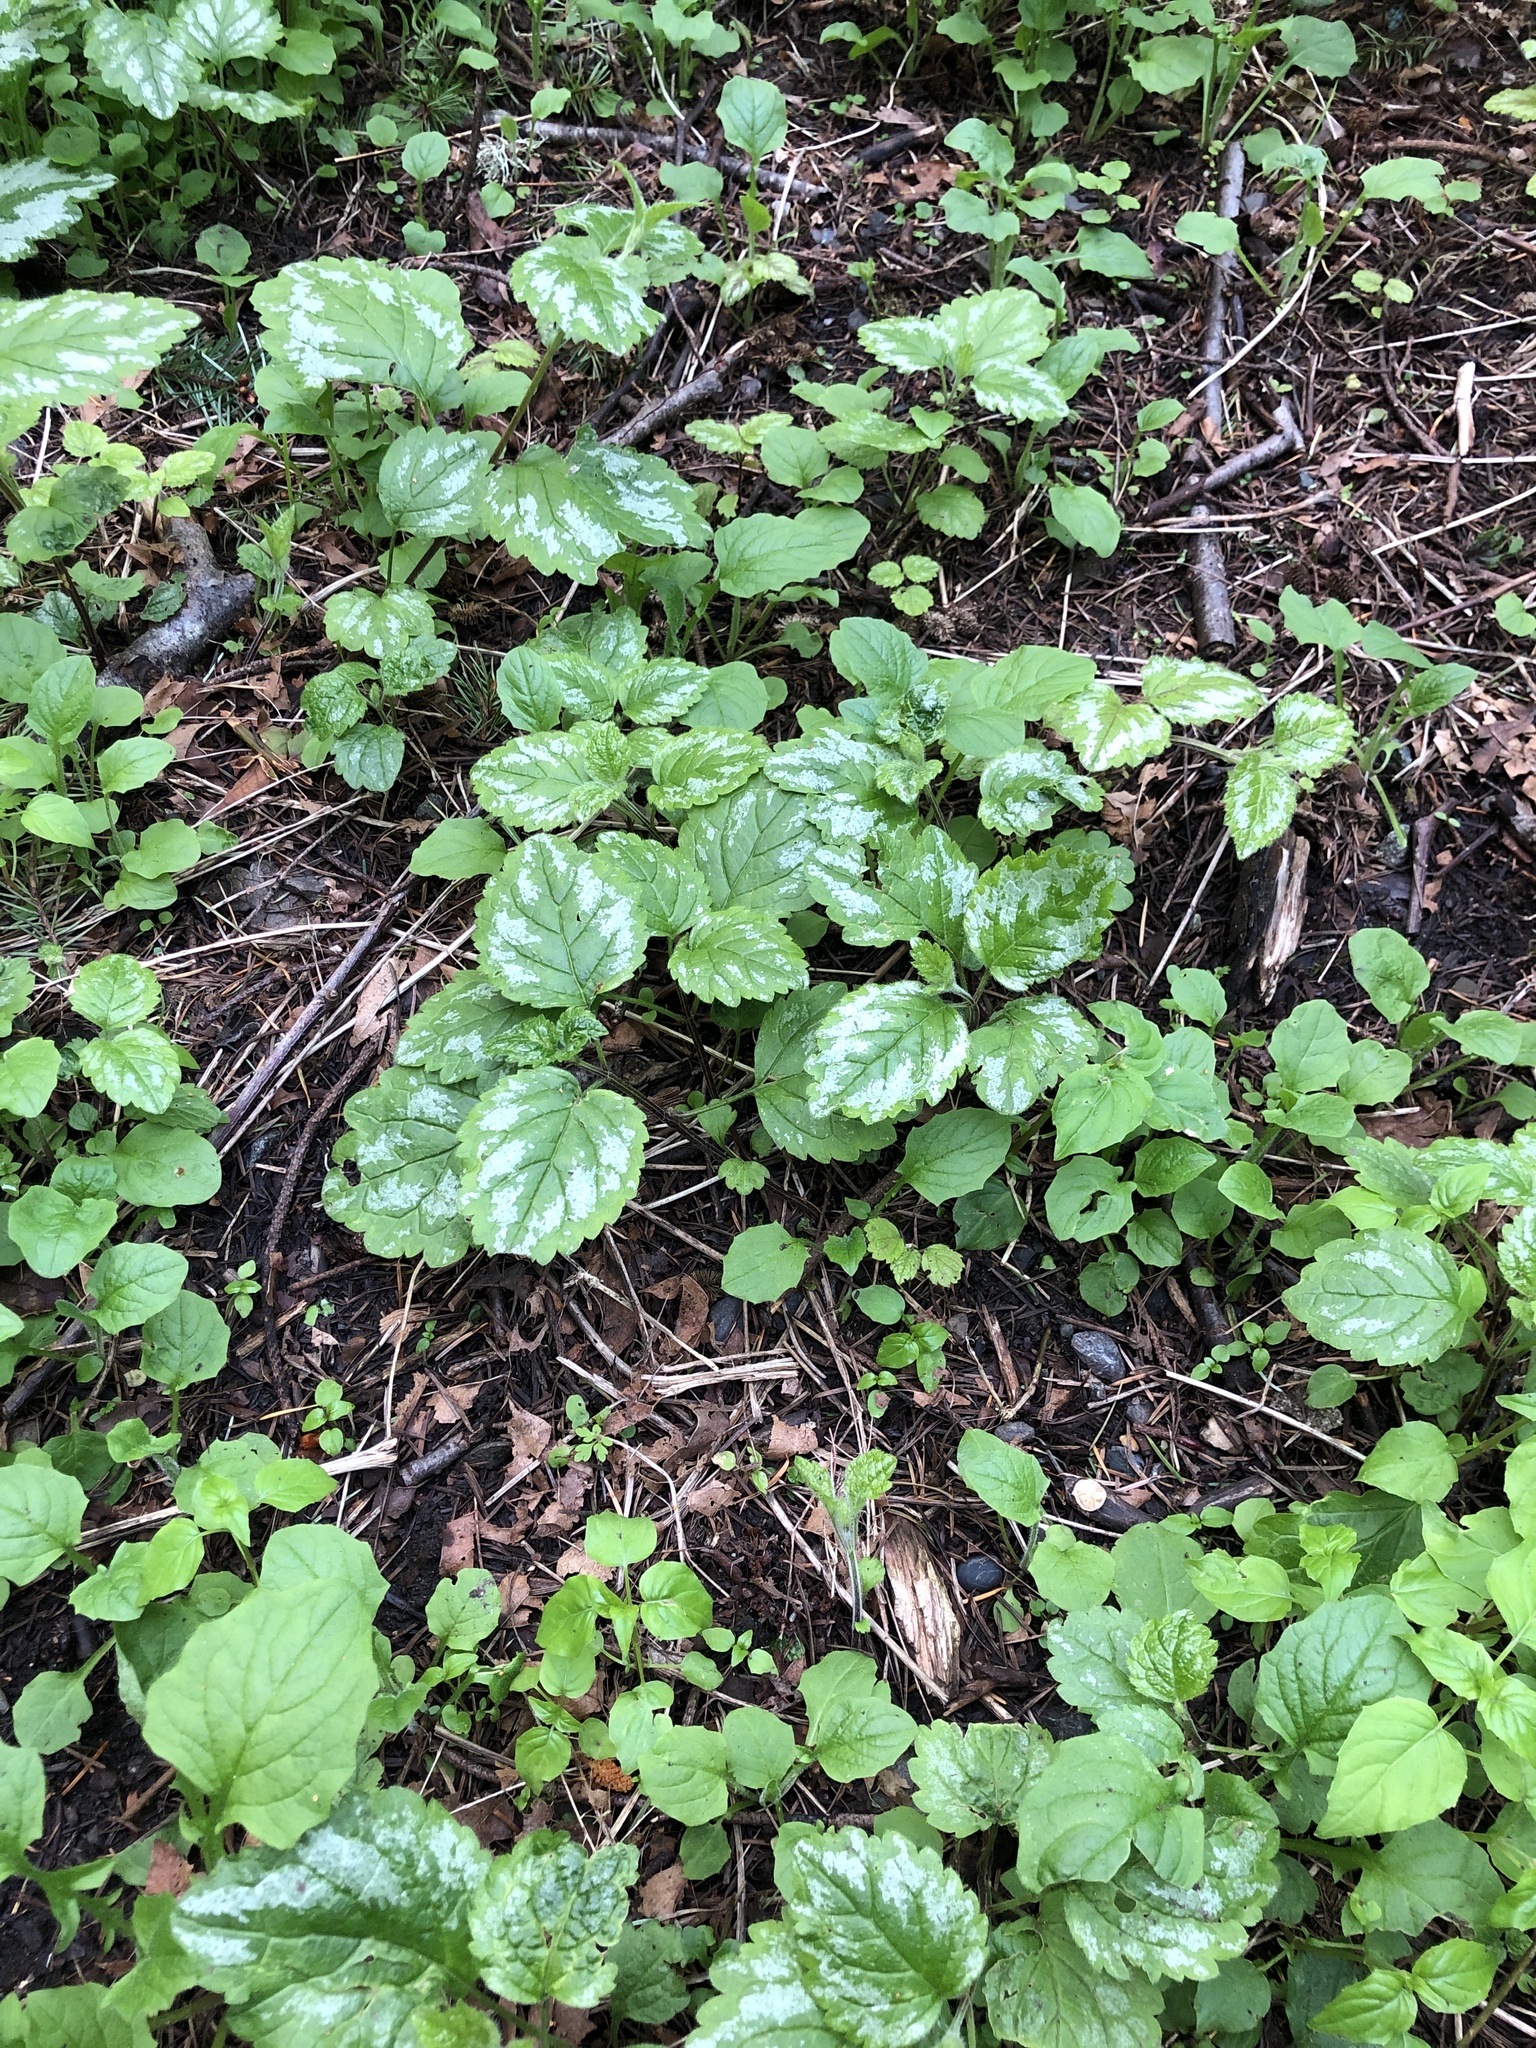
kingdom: Plantae
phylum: Tracheophyta
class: Magnoliopsida
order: Lamiales
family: Lamiaceae
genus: Lamium
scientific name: Lamium galeobdolon
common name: Yellow archangel
